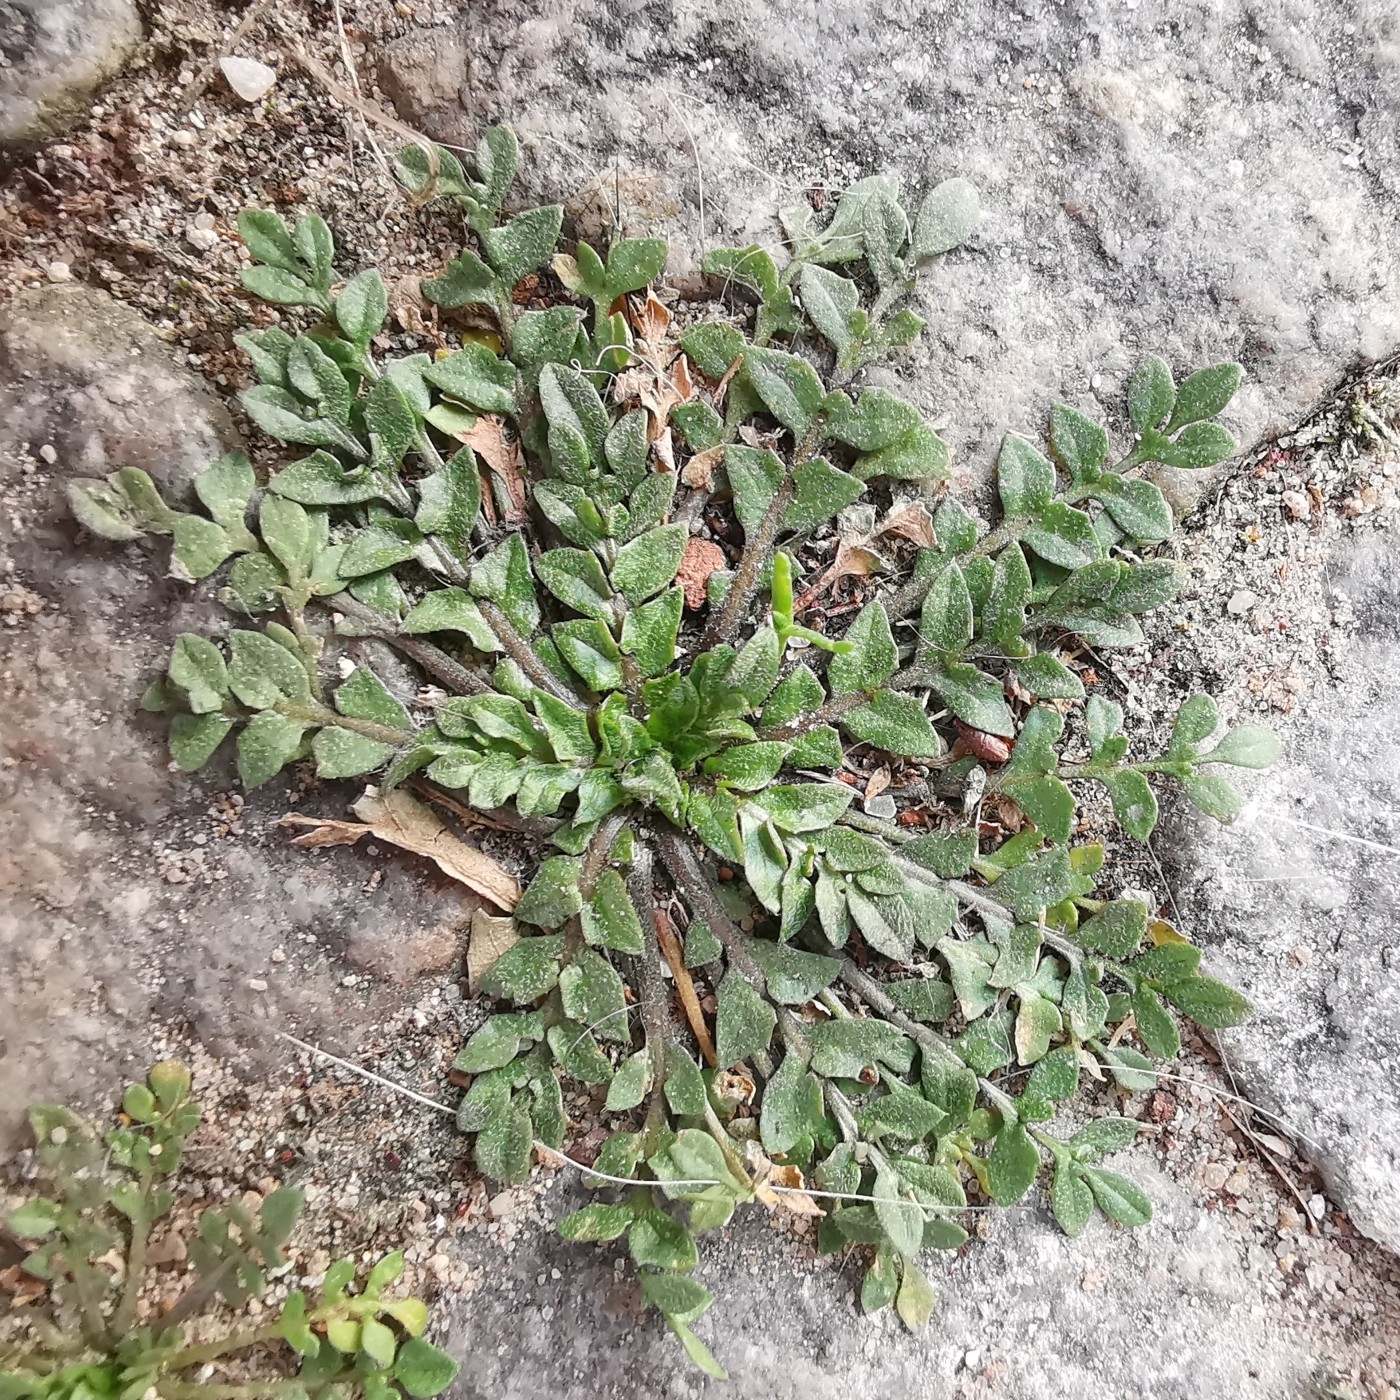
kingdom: Plantae
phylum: Tracheophyta
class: Magnoliopsida
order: Brassicales
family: Brassicaceae
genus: Capsella
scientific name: Capsella bursa-pastoris
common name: Shepherd's purse
